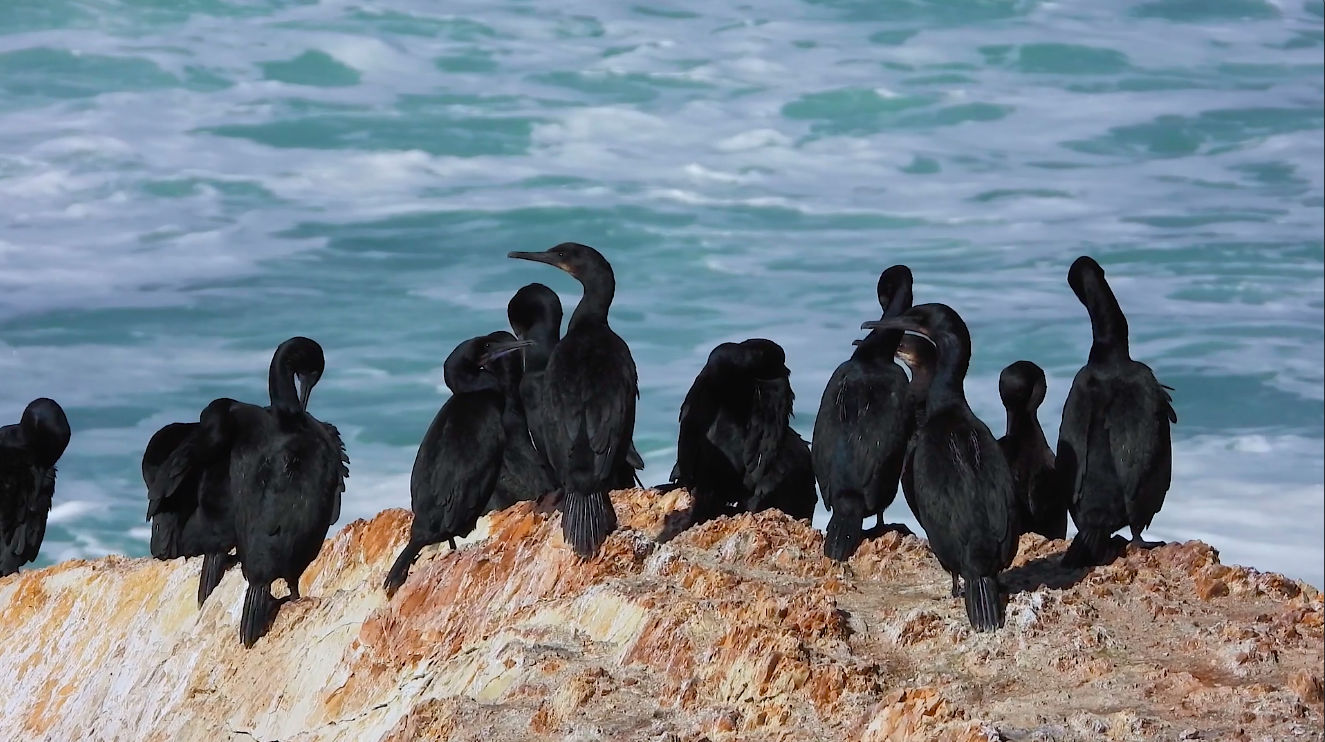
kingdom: Animalia
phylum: Chordata
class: Aves
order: Suliformes
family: Phalacrocoracidae
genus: Urile
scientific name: Urile penicillatus
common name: Brandt's cormorant
